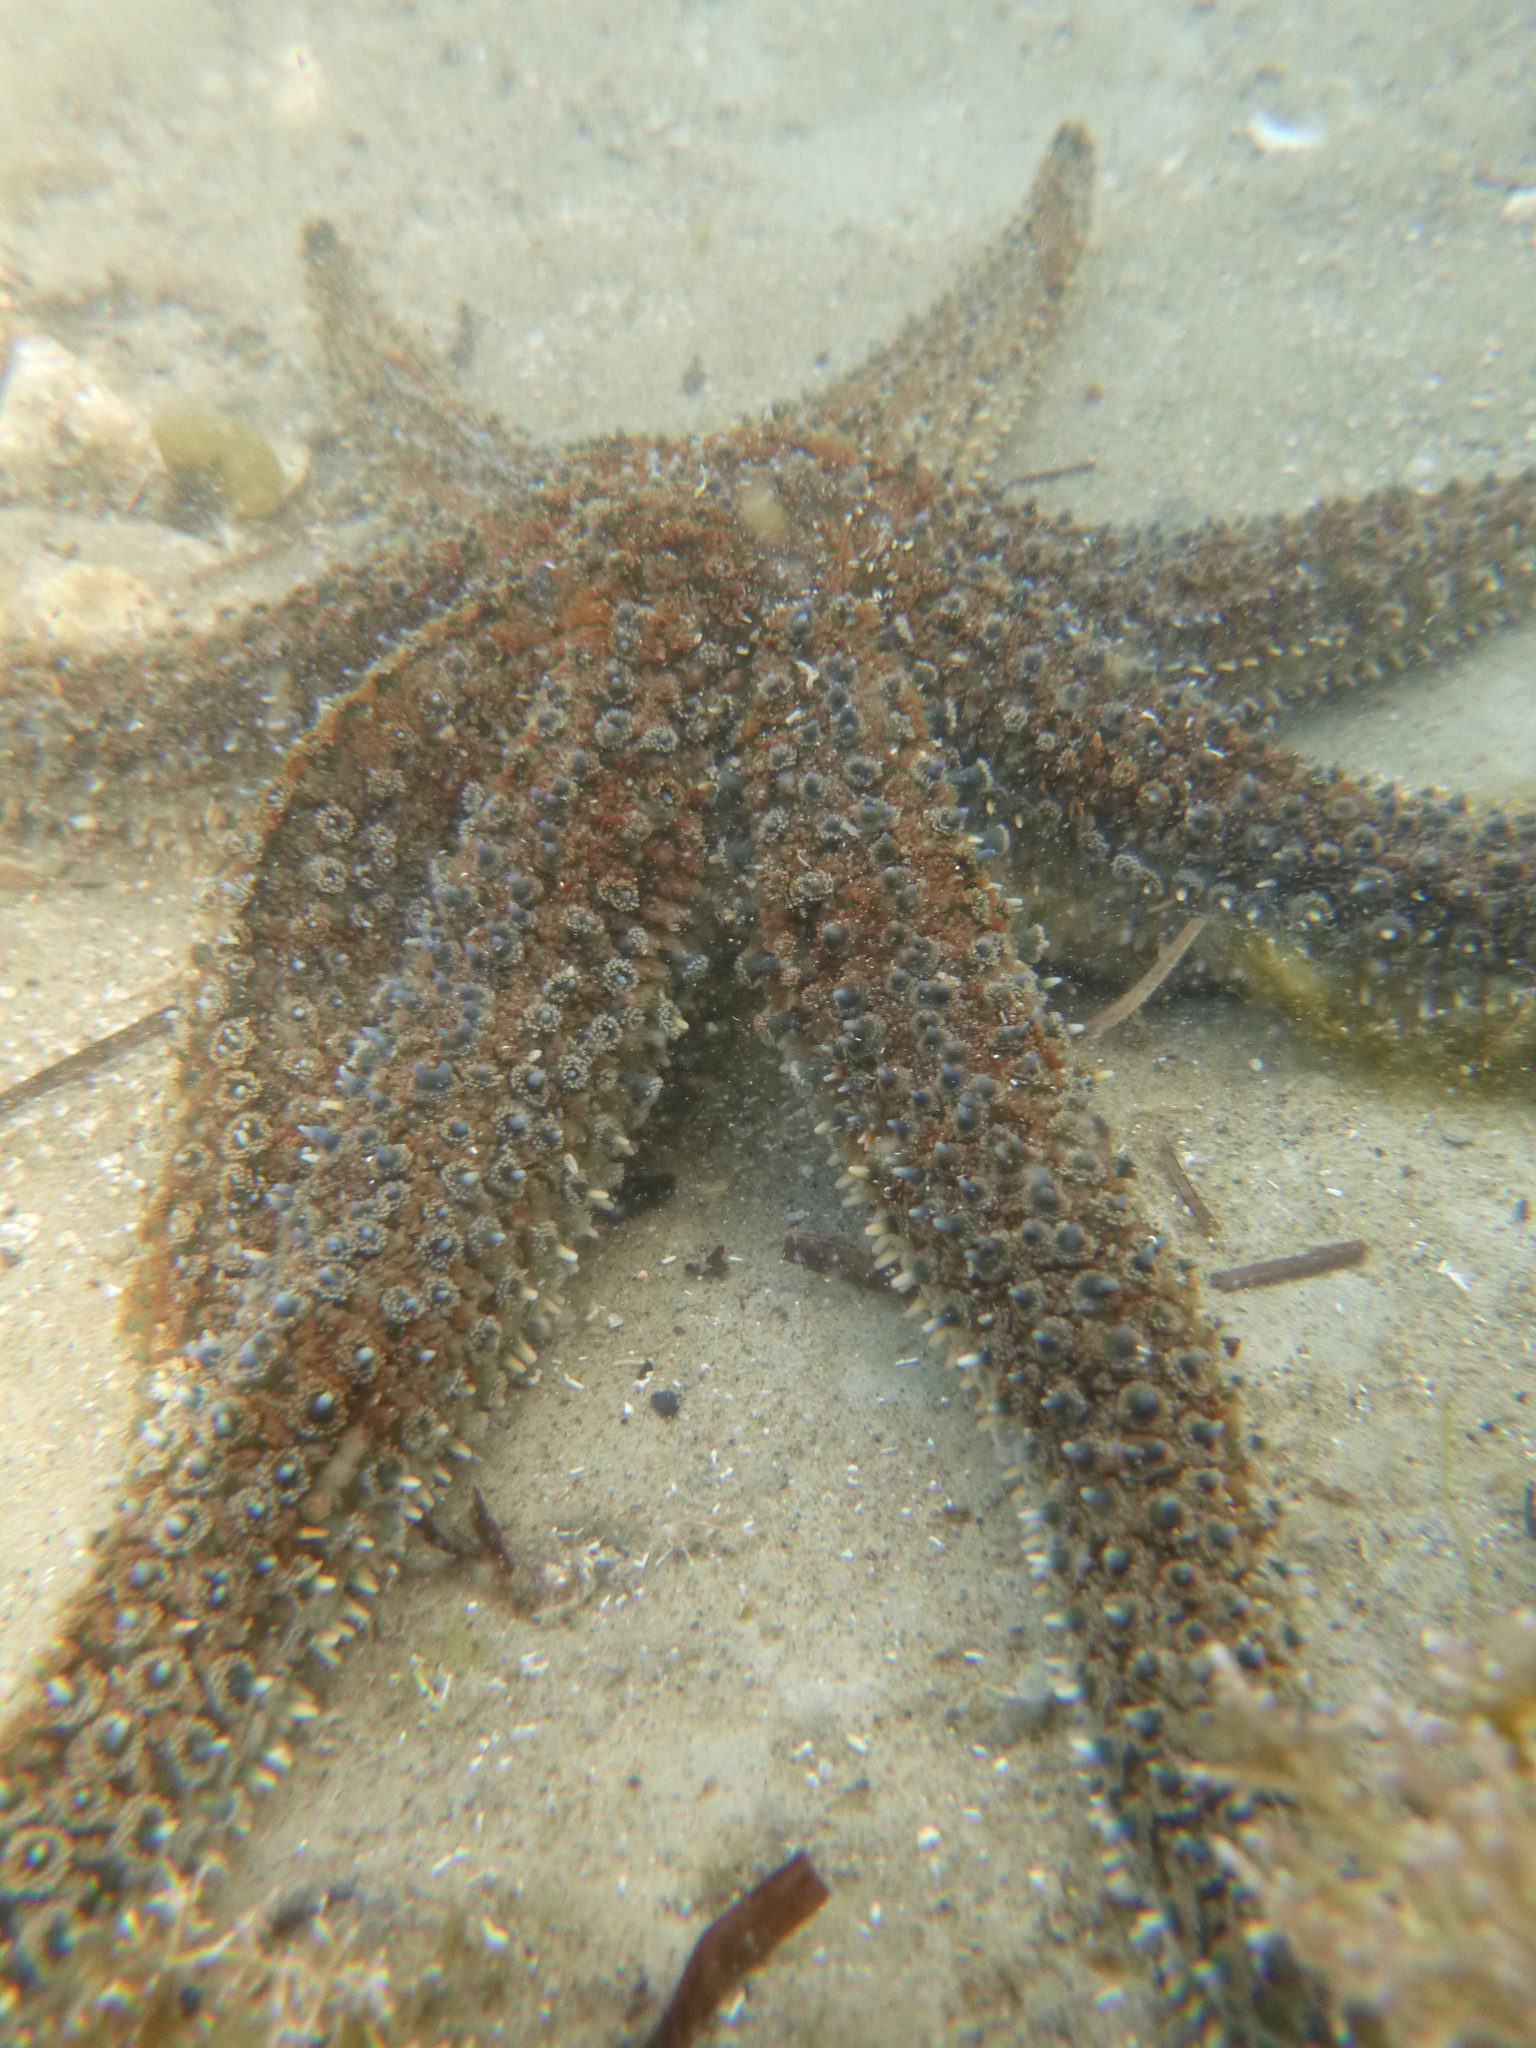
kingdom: Animalia
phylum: Echinodermata
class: Asteroidea
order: Forcipulatida
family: Asteriidae
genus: Coscinasterias
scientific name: Coscinasterias muricata
